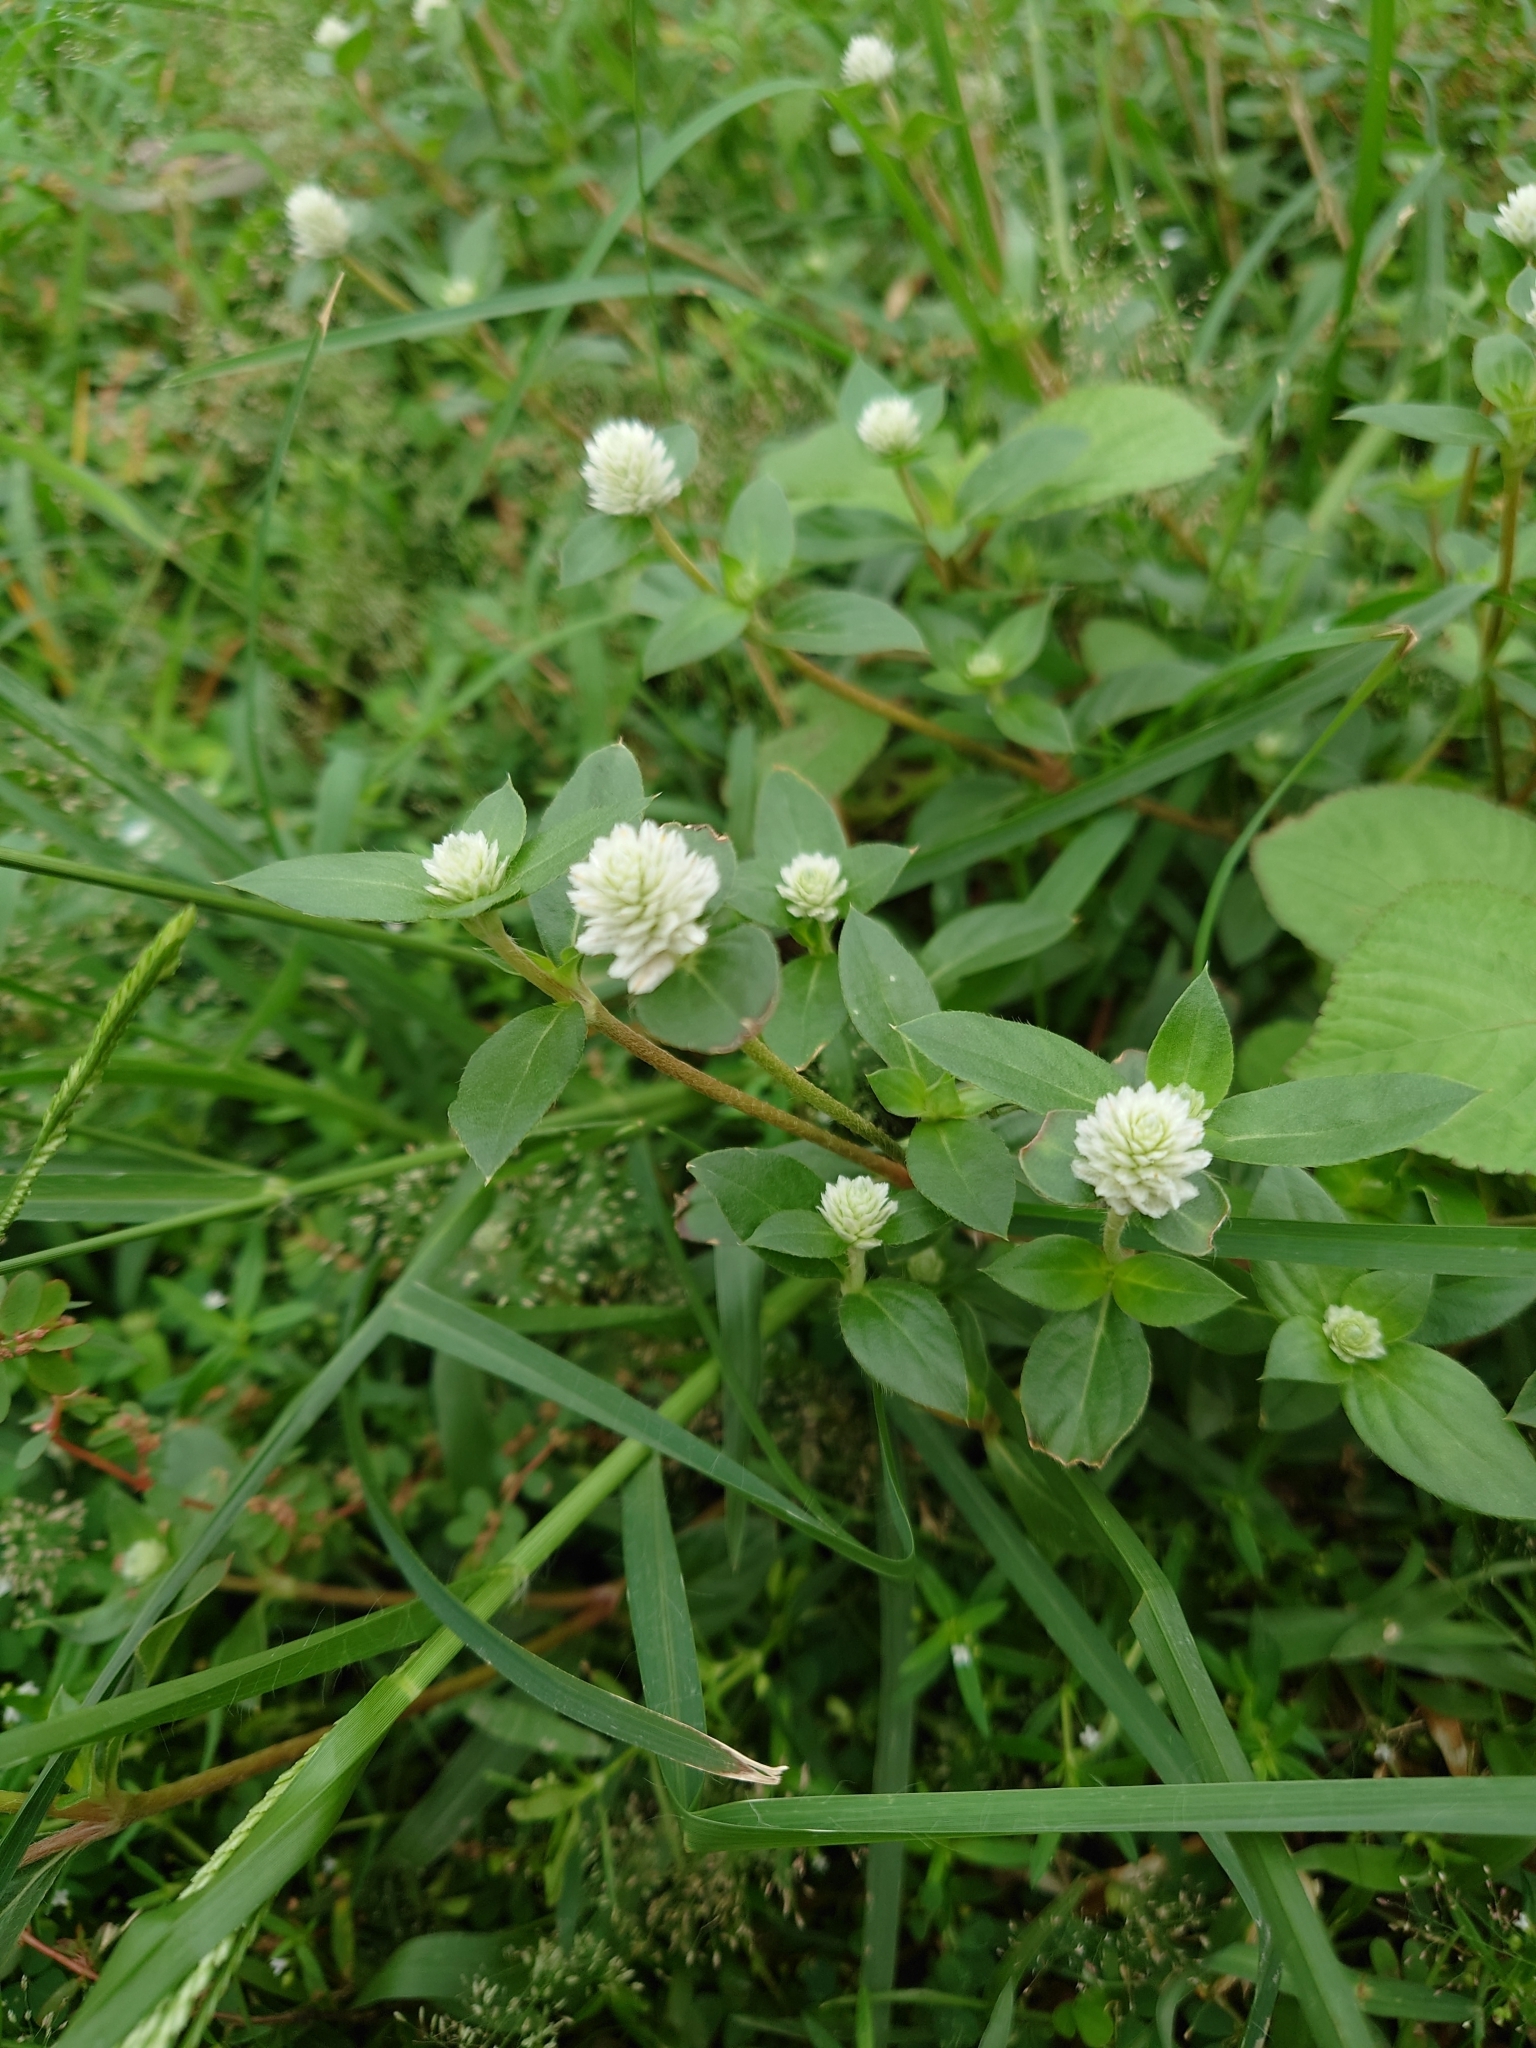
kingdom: Plantae
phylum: Tracheophyta
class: Magnoliopsida
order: Caryophyllales
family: Amaranthaceae
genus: Gomphrena
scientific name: Gomphrena celosioides
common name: Gomphrena-weed
